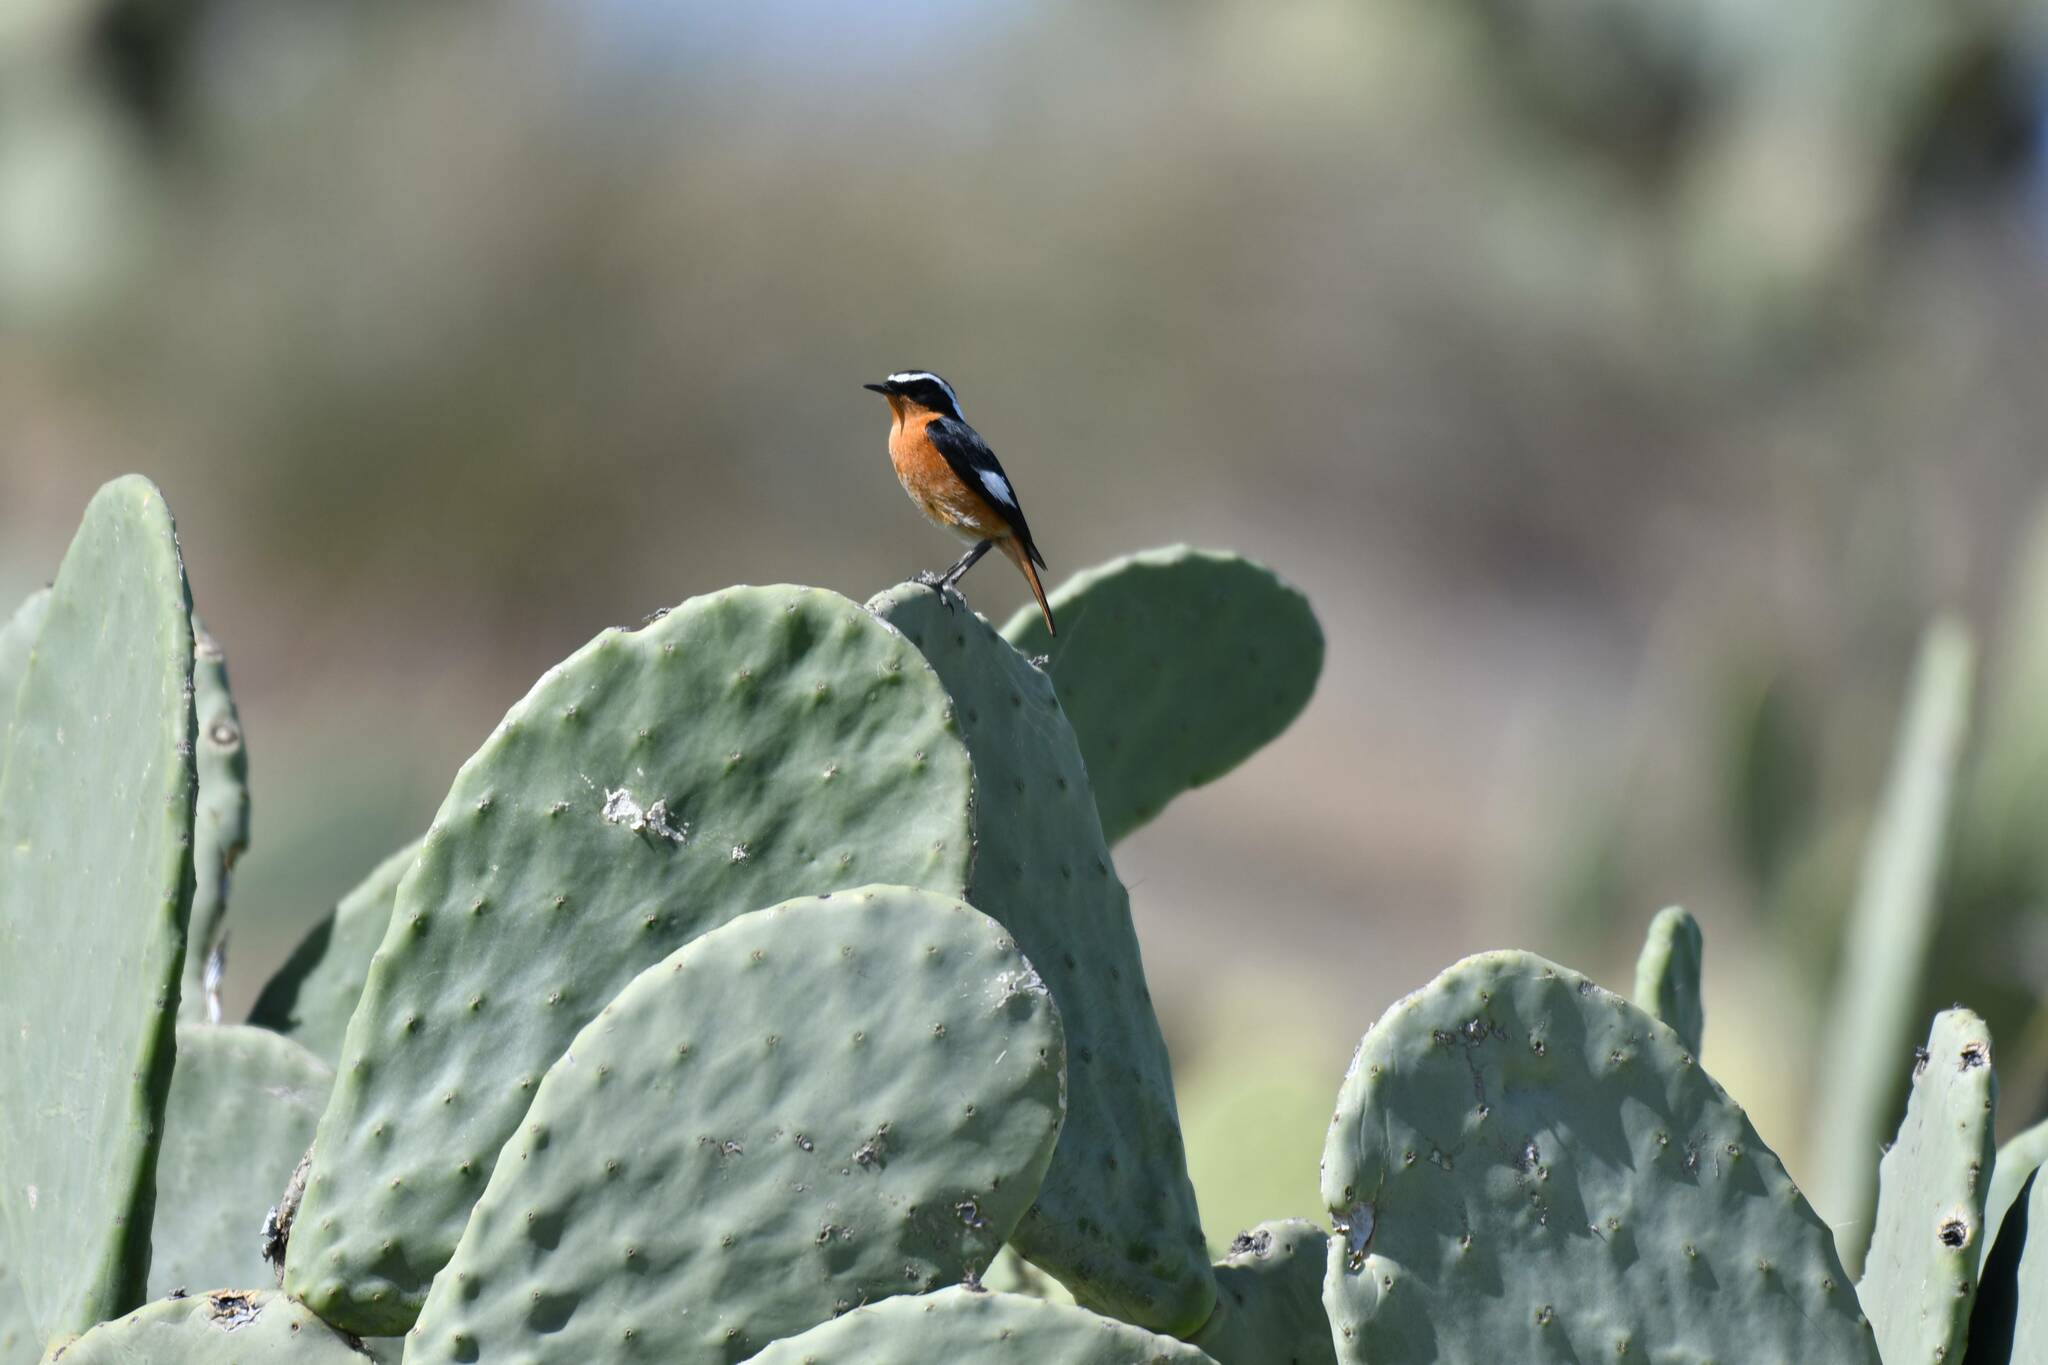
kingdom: Animalia
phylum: Chordata
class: Aves
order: Passeriformes
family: Muscicapidae
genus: Phoenicurus
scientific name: Phoenicurus moussieri
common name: Moussier's redstart
